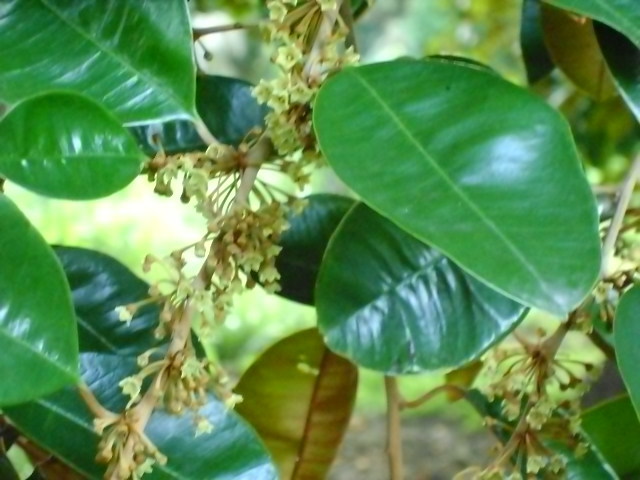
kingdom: Plantae
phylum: Tracheophyta
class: Magnoliopsida
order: Ericales
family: Sapotaceae
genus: Chrysophyllum
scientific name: Chrysophyllum mexicanum
